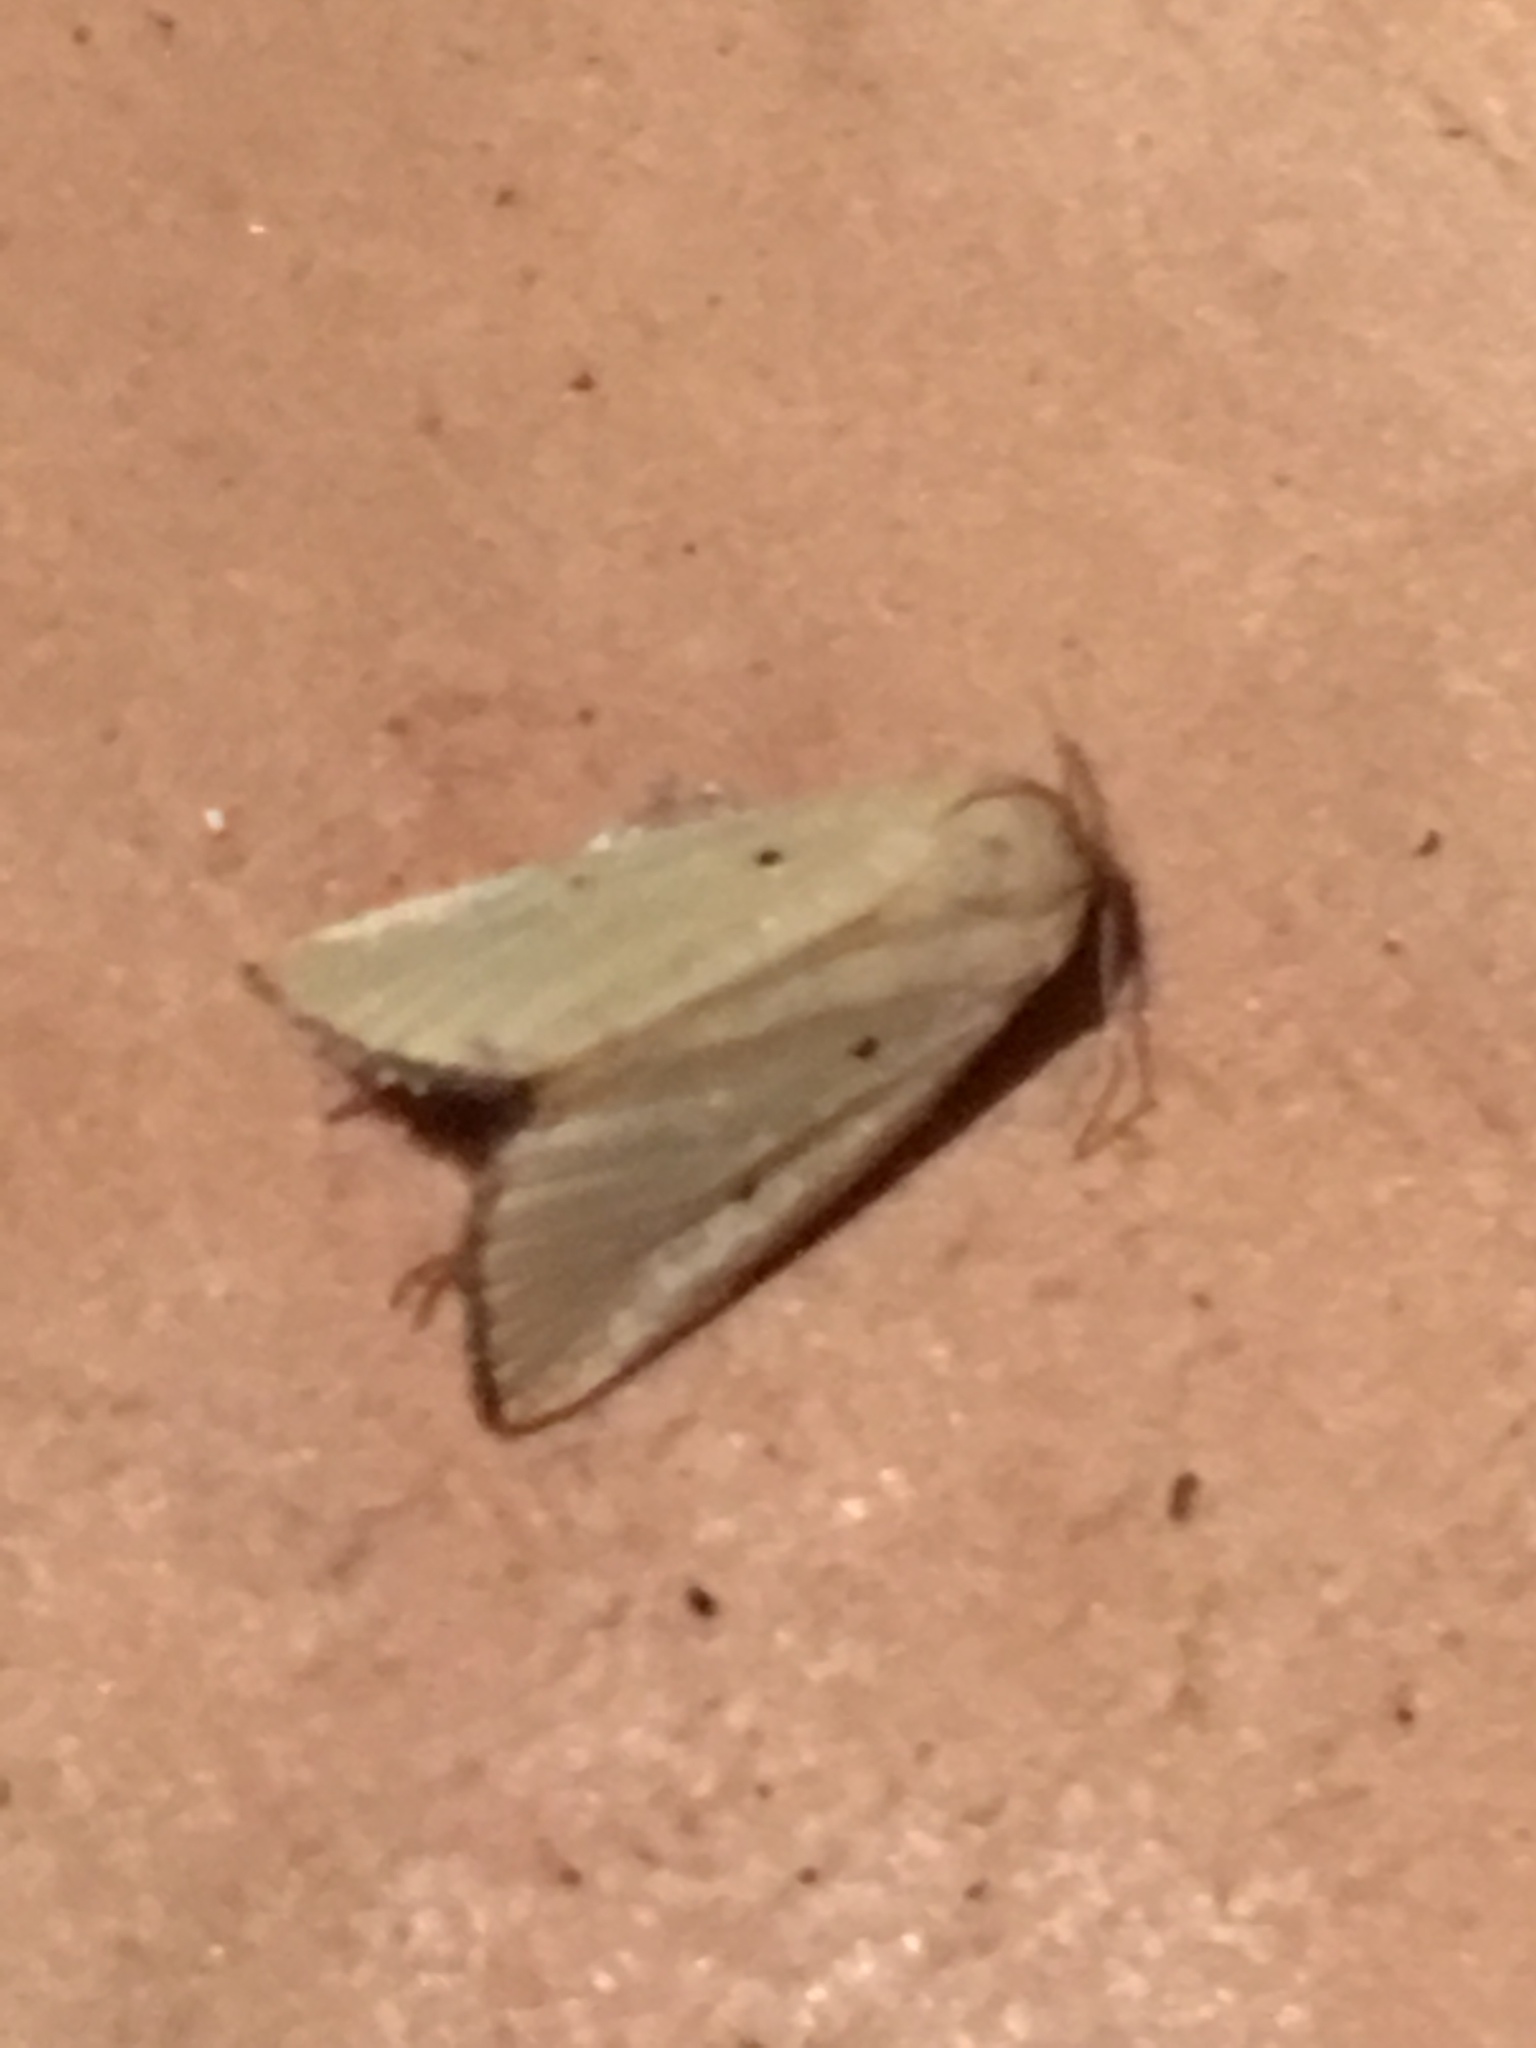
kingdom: Animalia
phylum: Arthropoda
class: Insecta
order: Lepidoptera
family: Noctuidae
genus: Marimatha
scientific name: Marimatha nigrofimbria
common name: Black-bordered lemon moth
